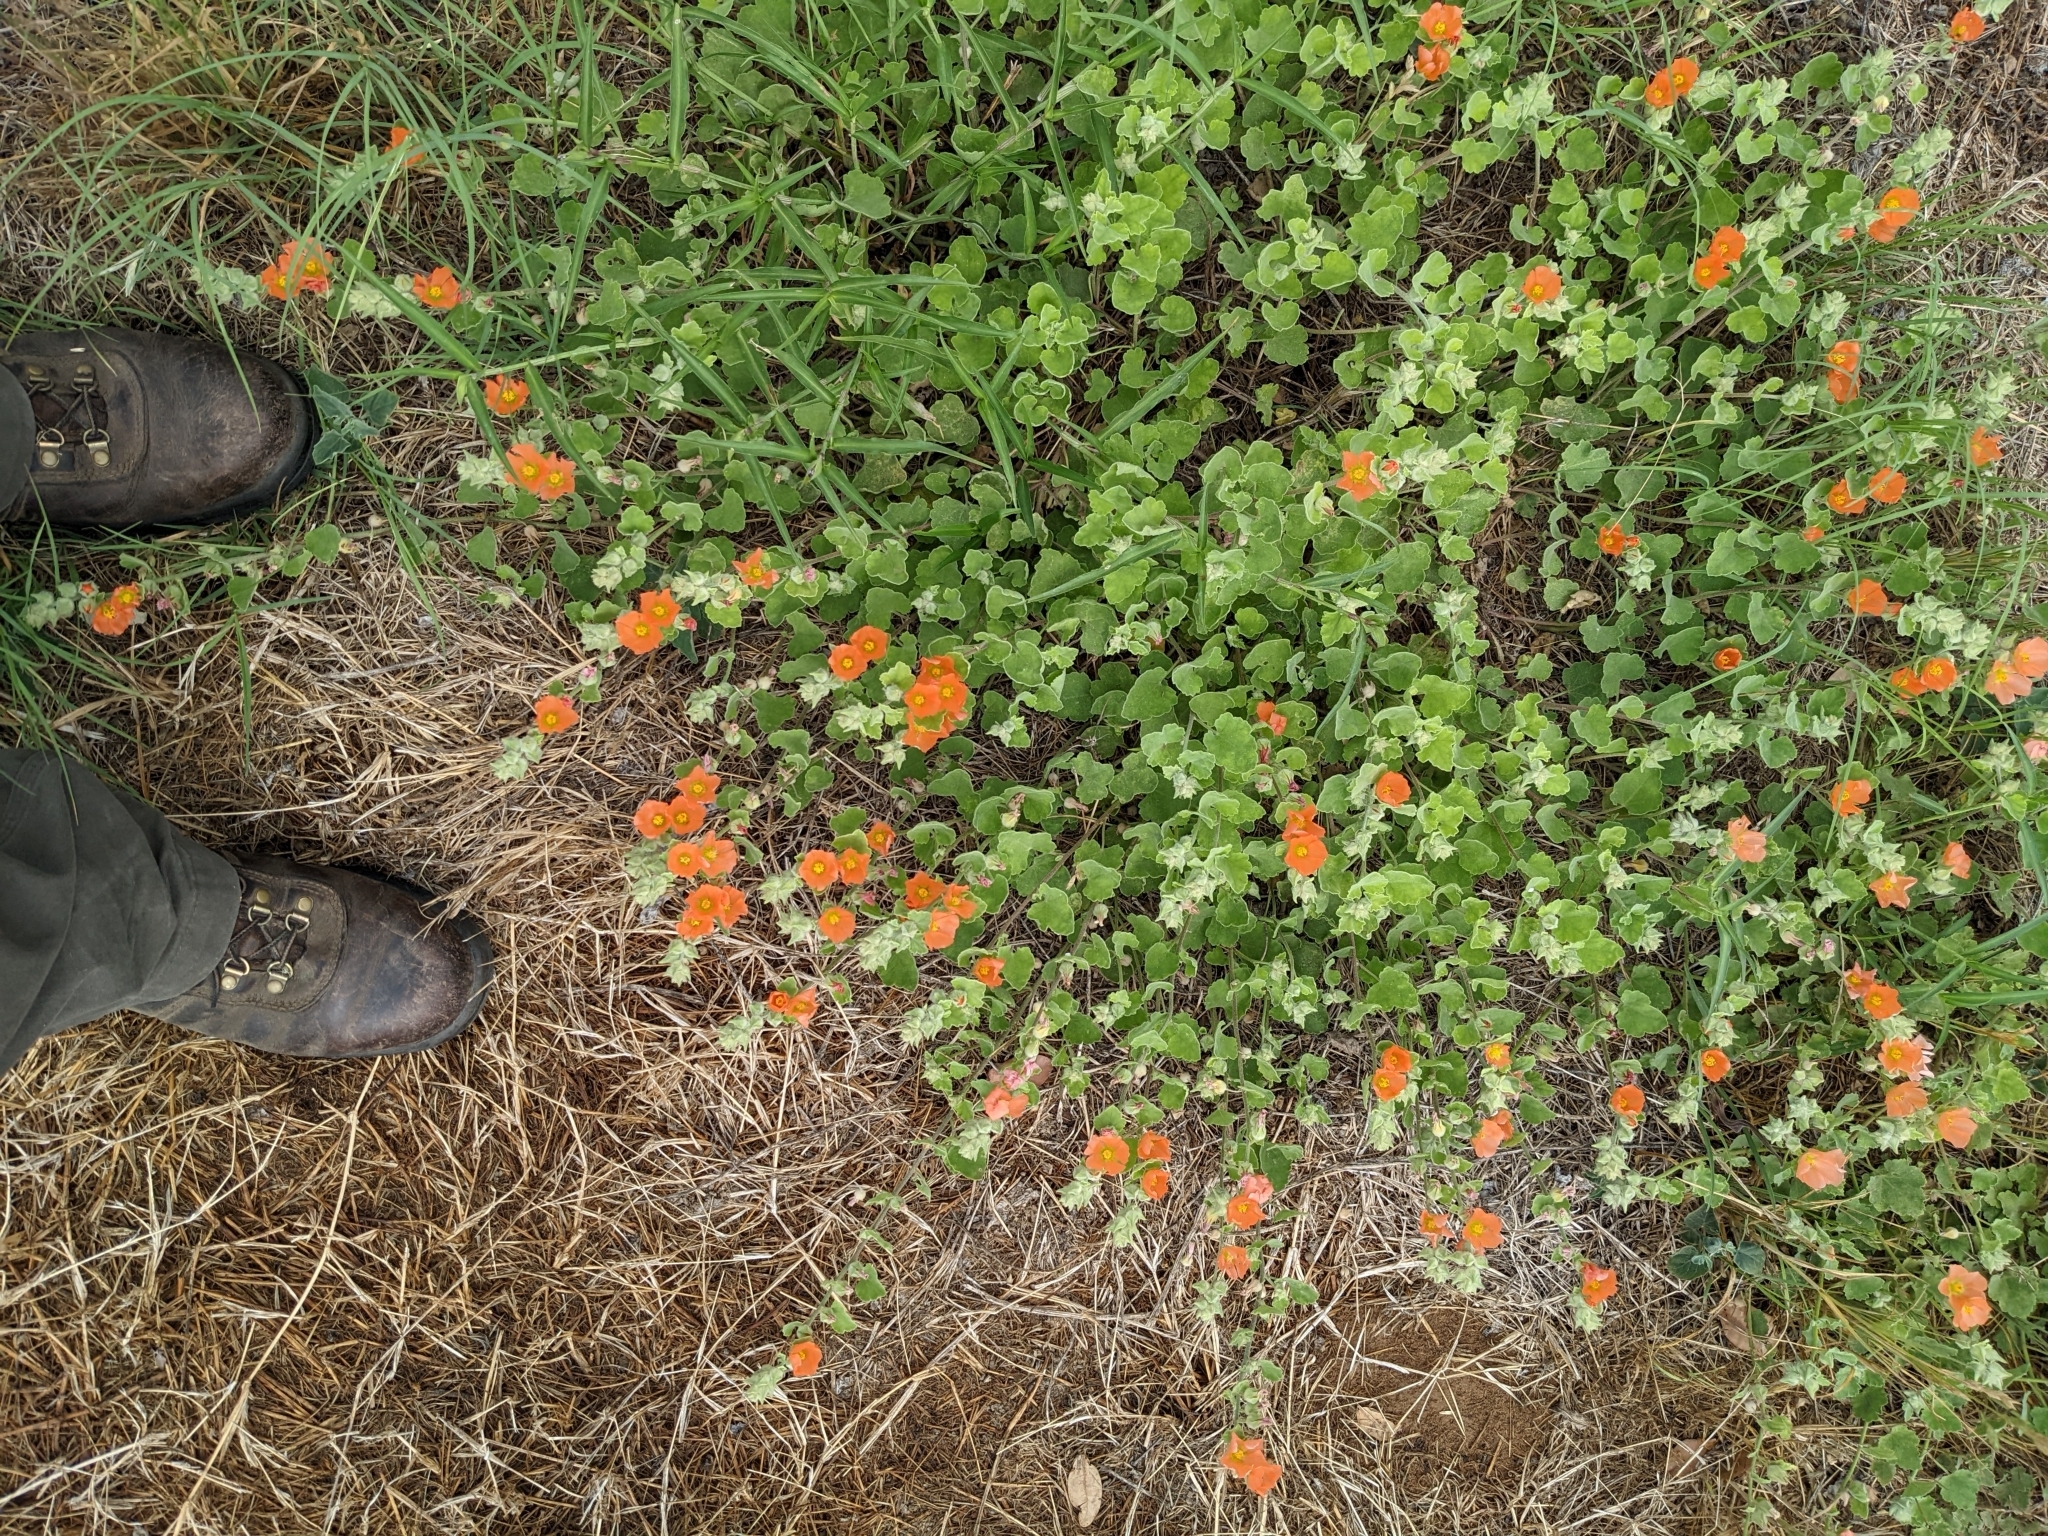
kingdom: Plantae
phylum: Tracheophyta
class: Magnoliopsida
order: Malvales
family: Malvaceae
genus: Sphaeralcea
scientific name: Sphaeralcea lindheimeri
